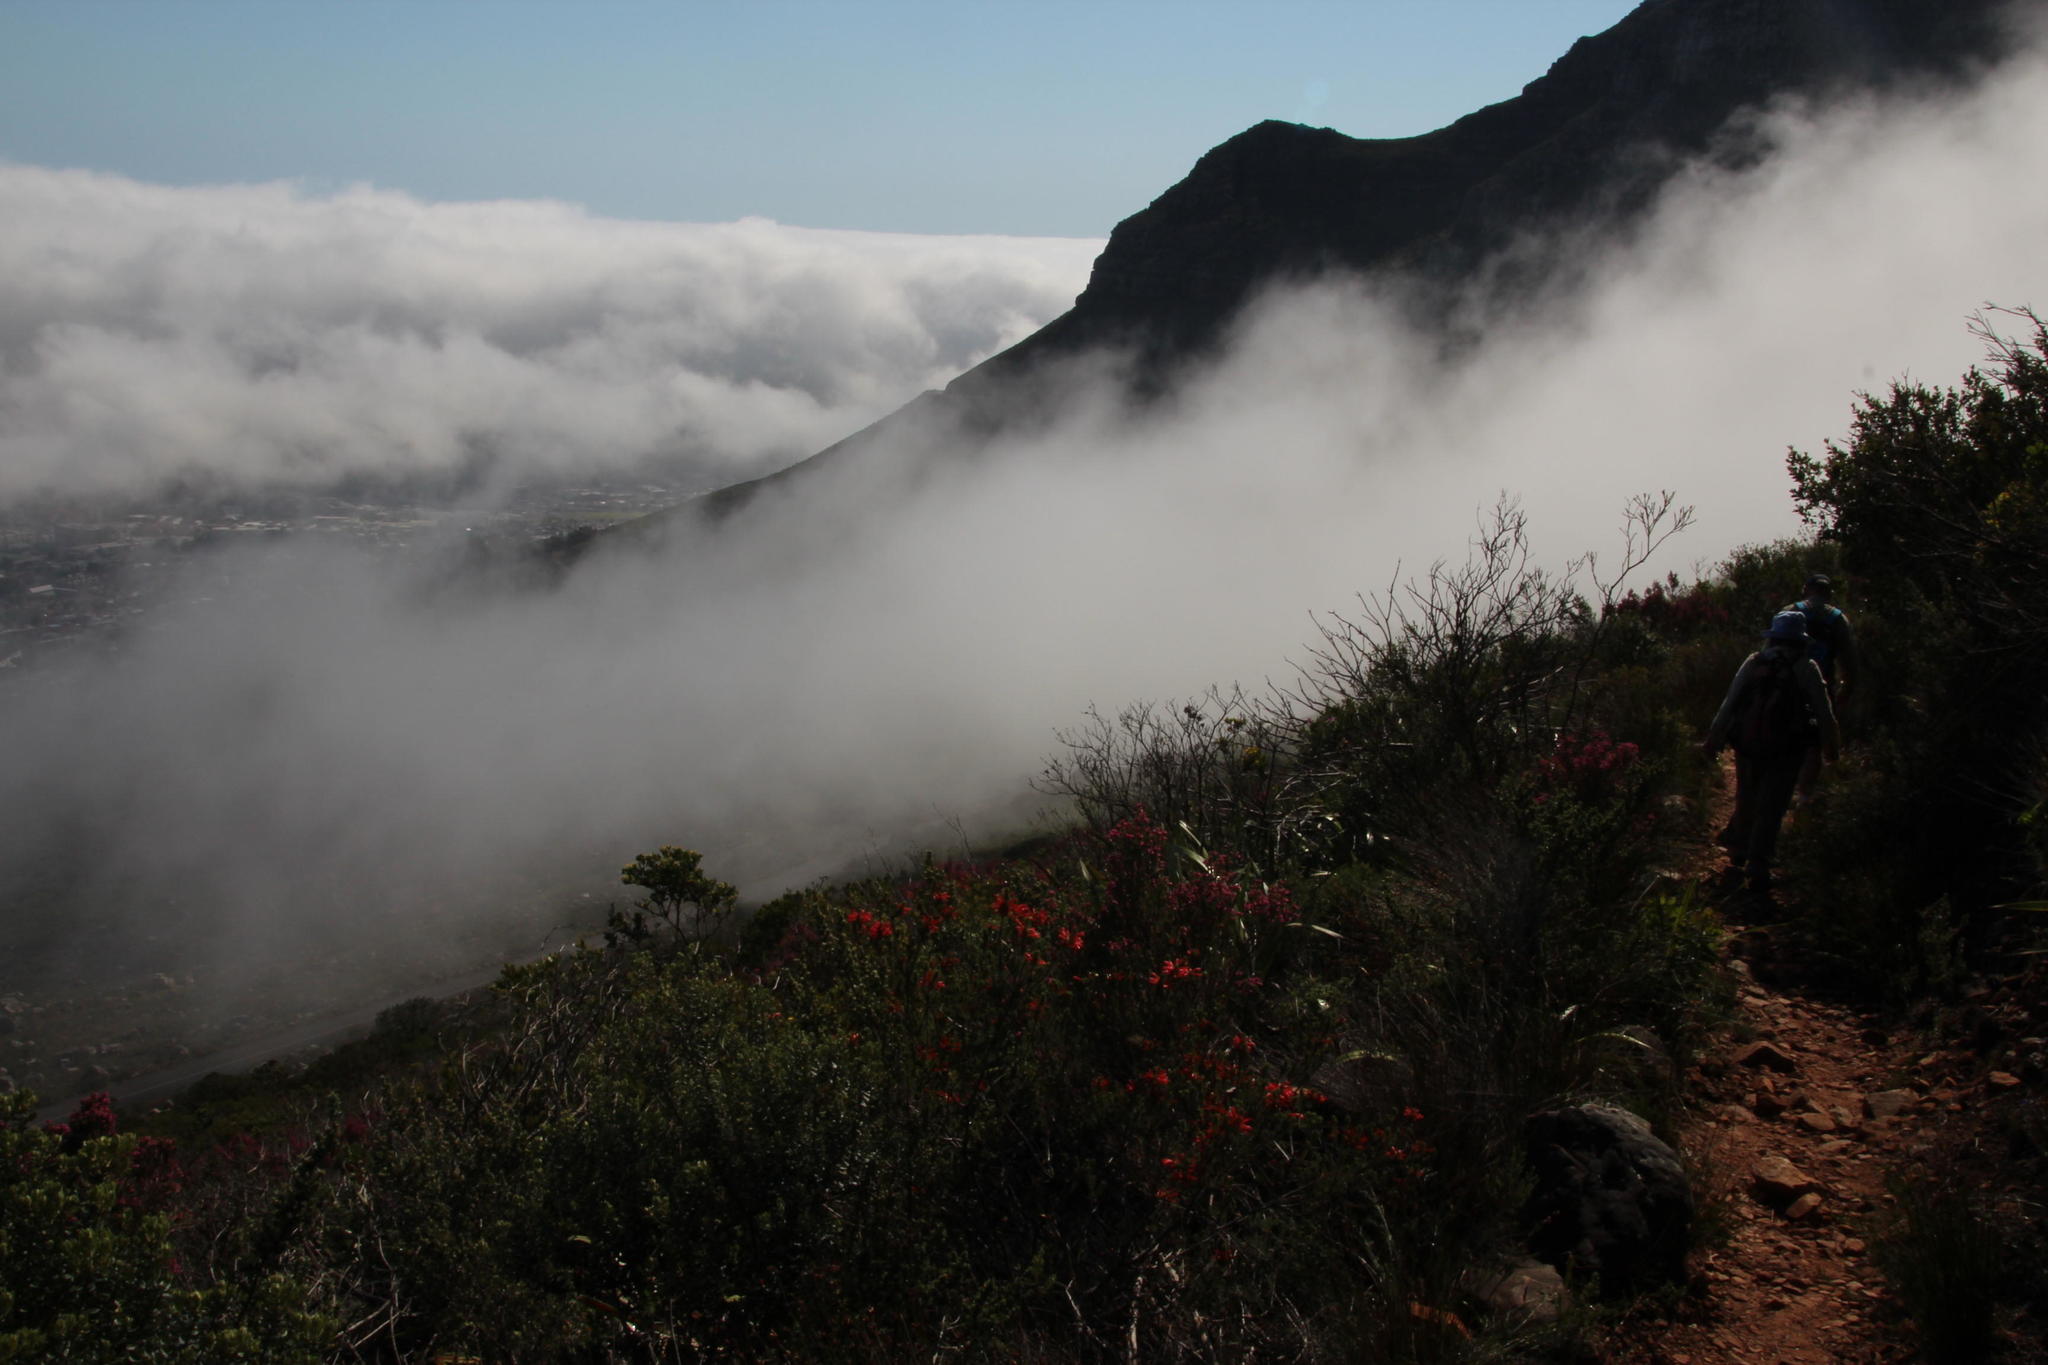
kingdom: Plantae
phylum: Tracheophyta
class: Magnoliopsida
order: Ericales
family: Ericaceae
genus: Erica
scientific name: Erica abietina
